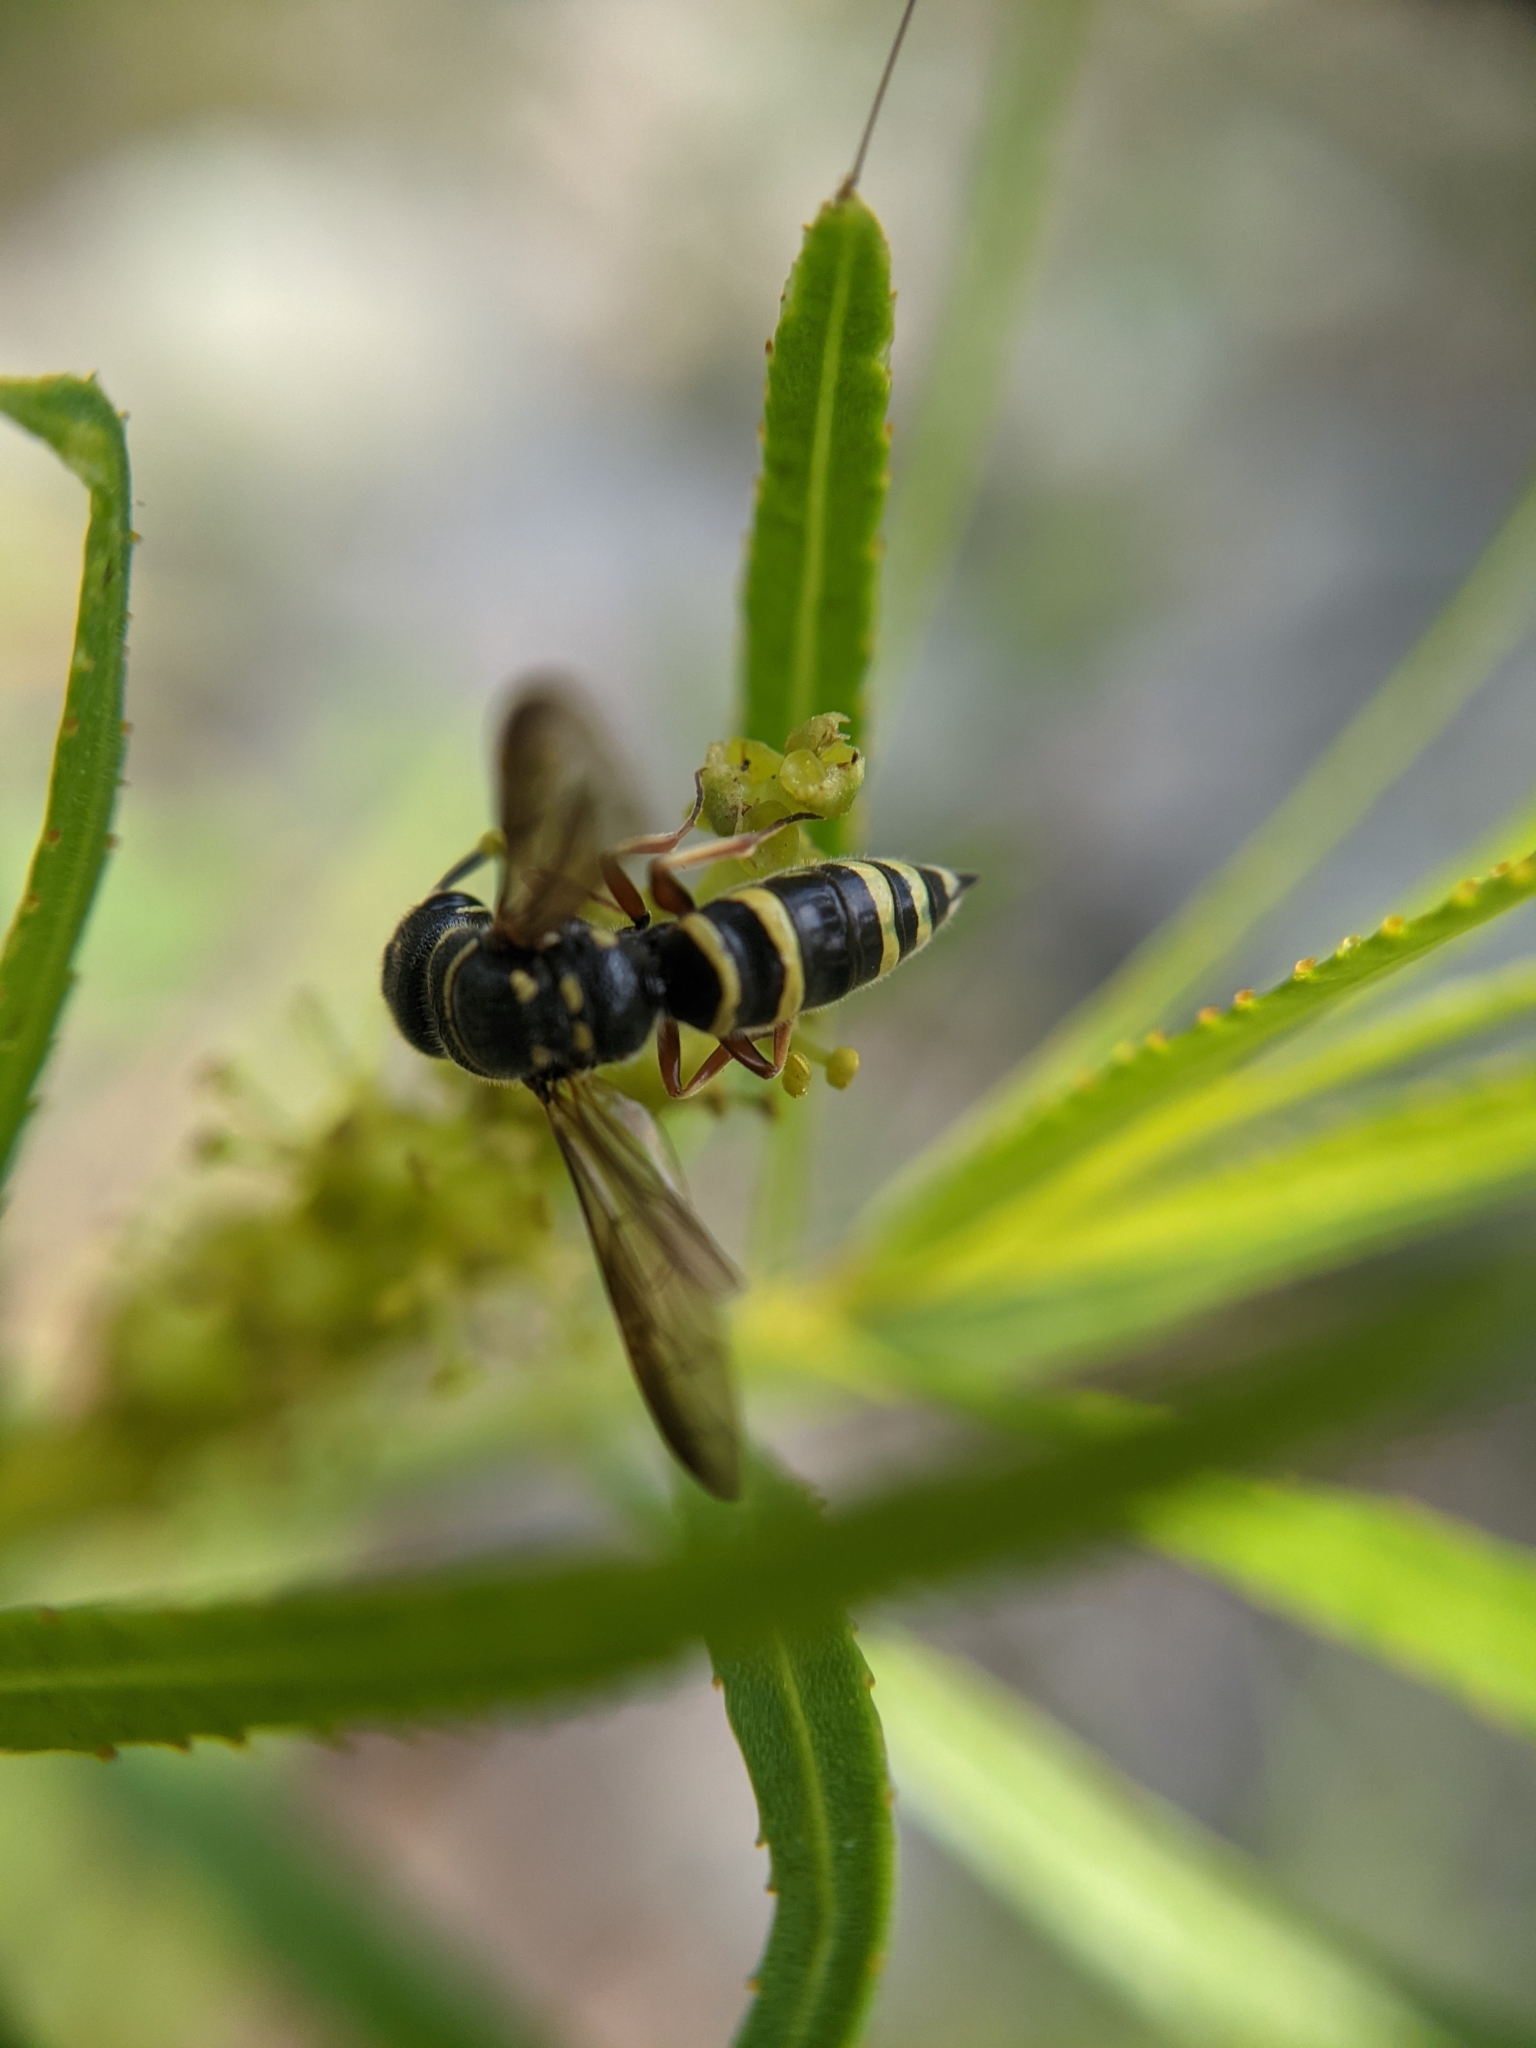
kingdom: Animalia
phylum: Arthropoda
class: Insecta
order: Hymenoptera
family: Sapygidae
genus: Eusapyga
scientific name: Eusapyga
